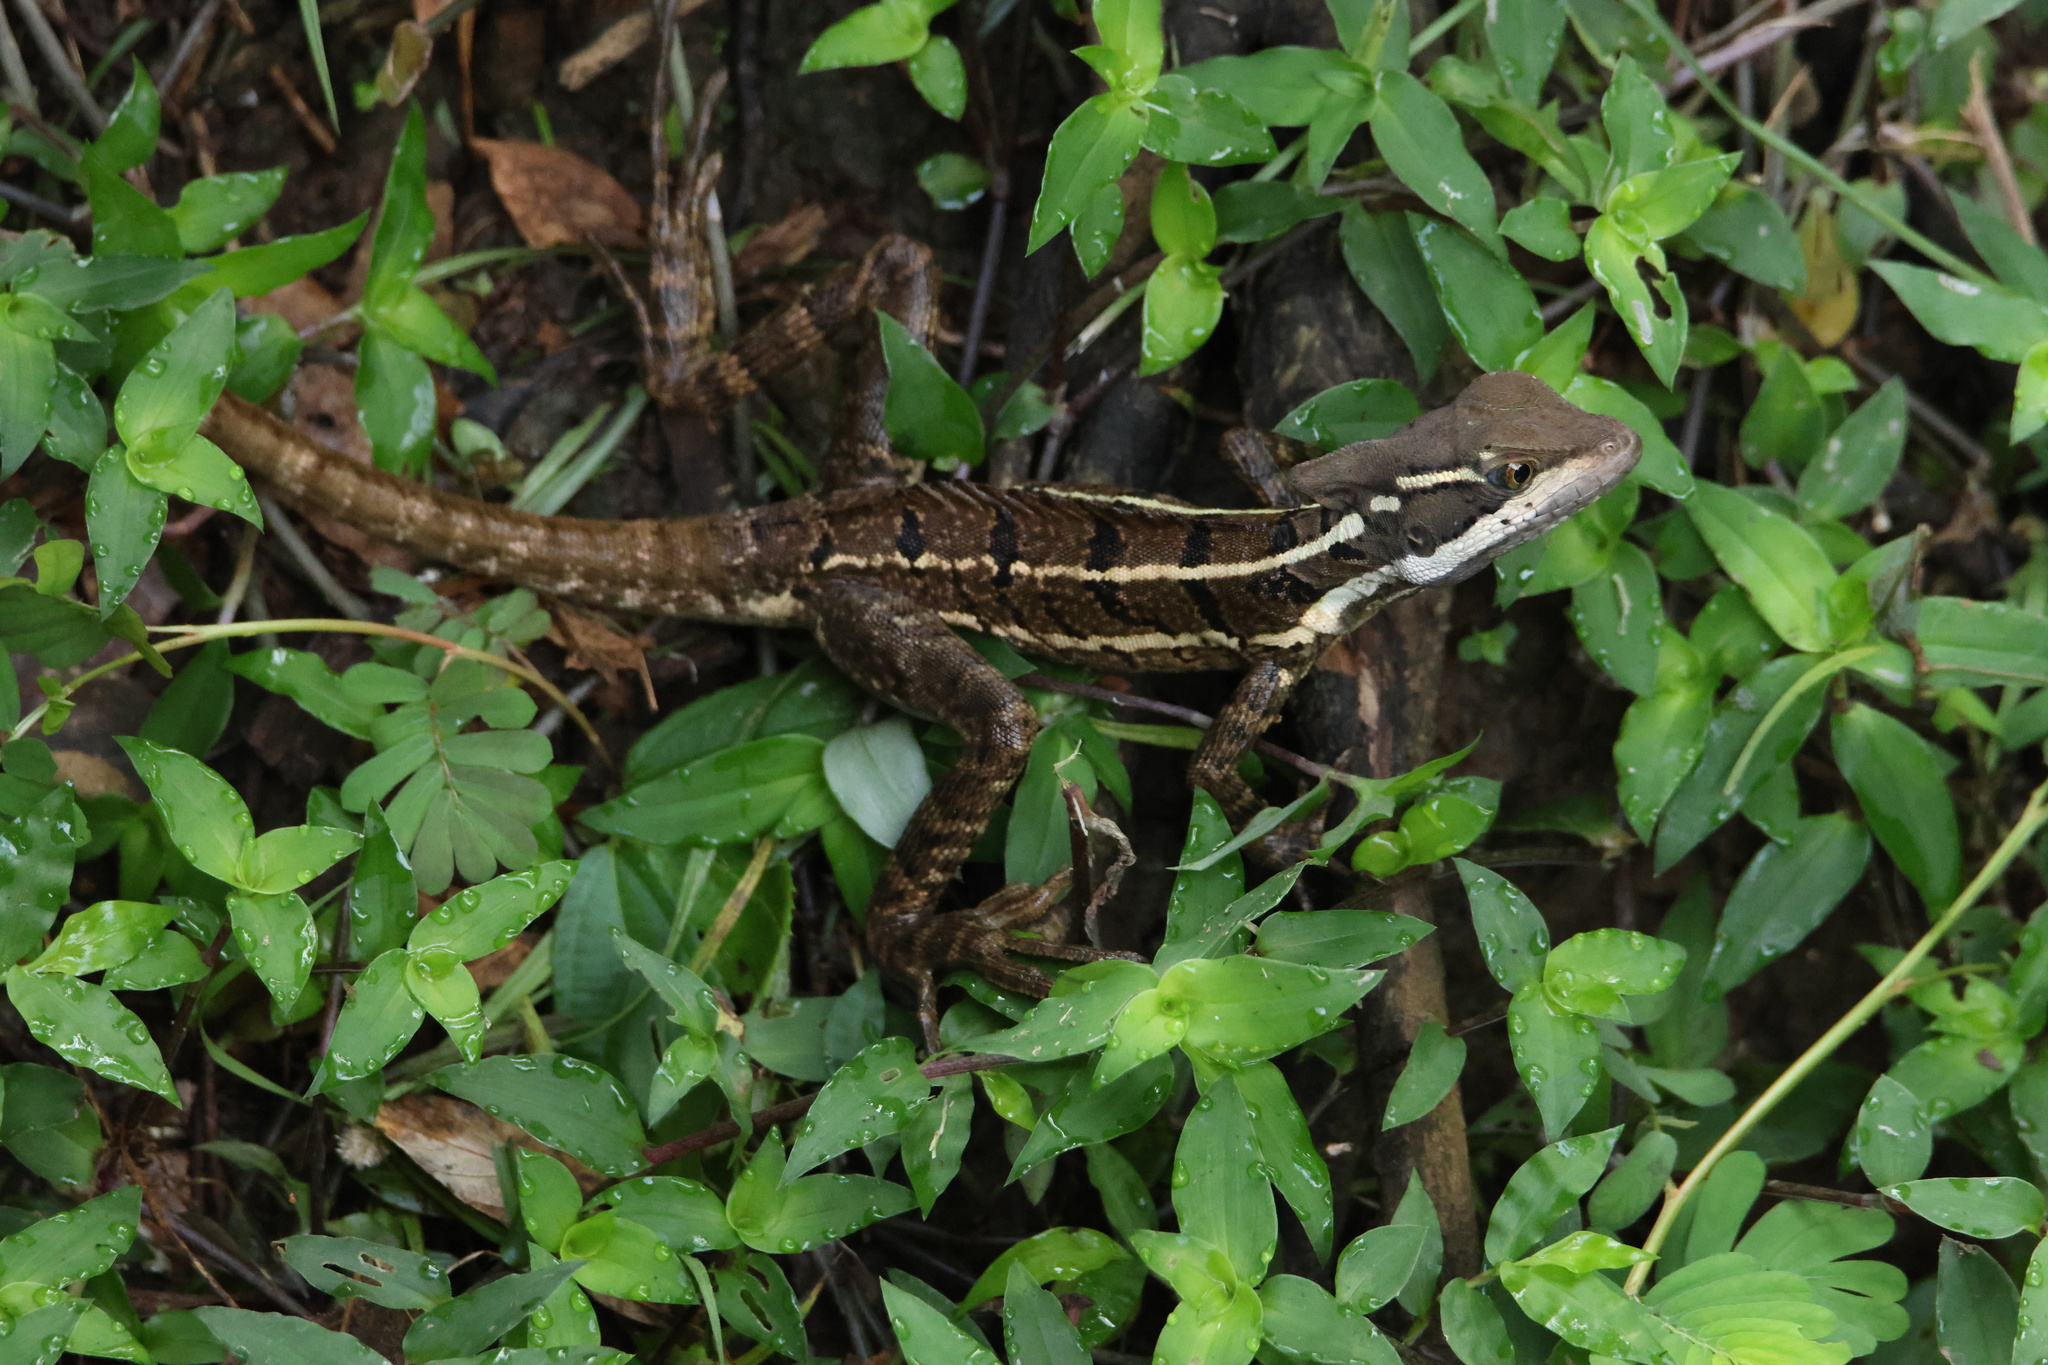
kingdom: Animalia
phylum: Chordata
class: Squamata
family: Corytophanidae
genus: Basiliscus
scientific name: Basiliscus basiliscus
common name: Common basilisk
